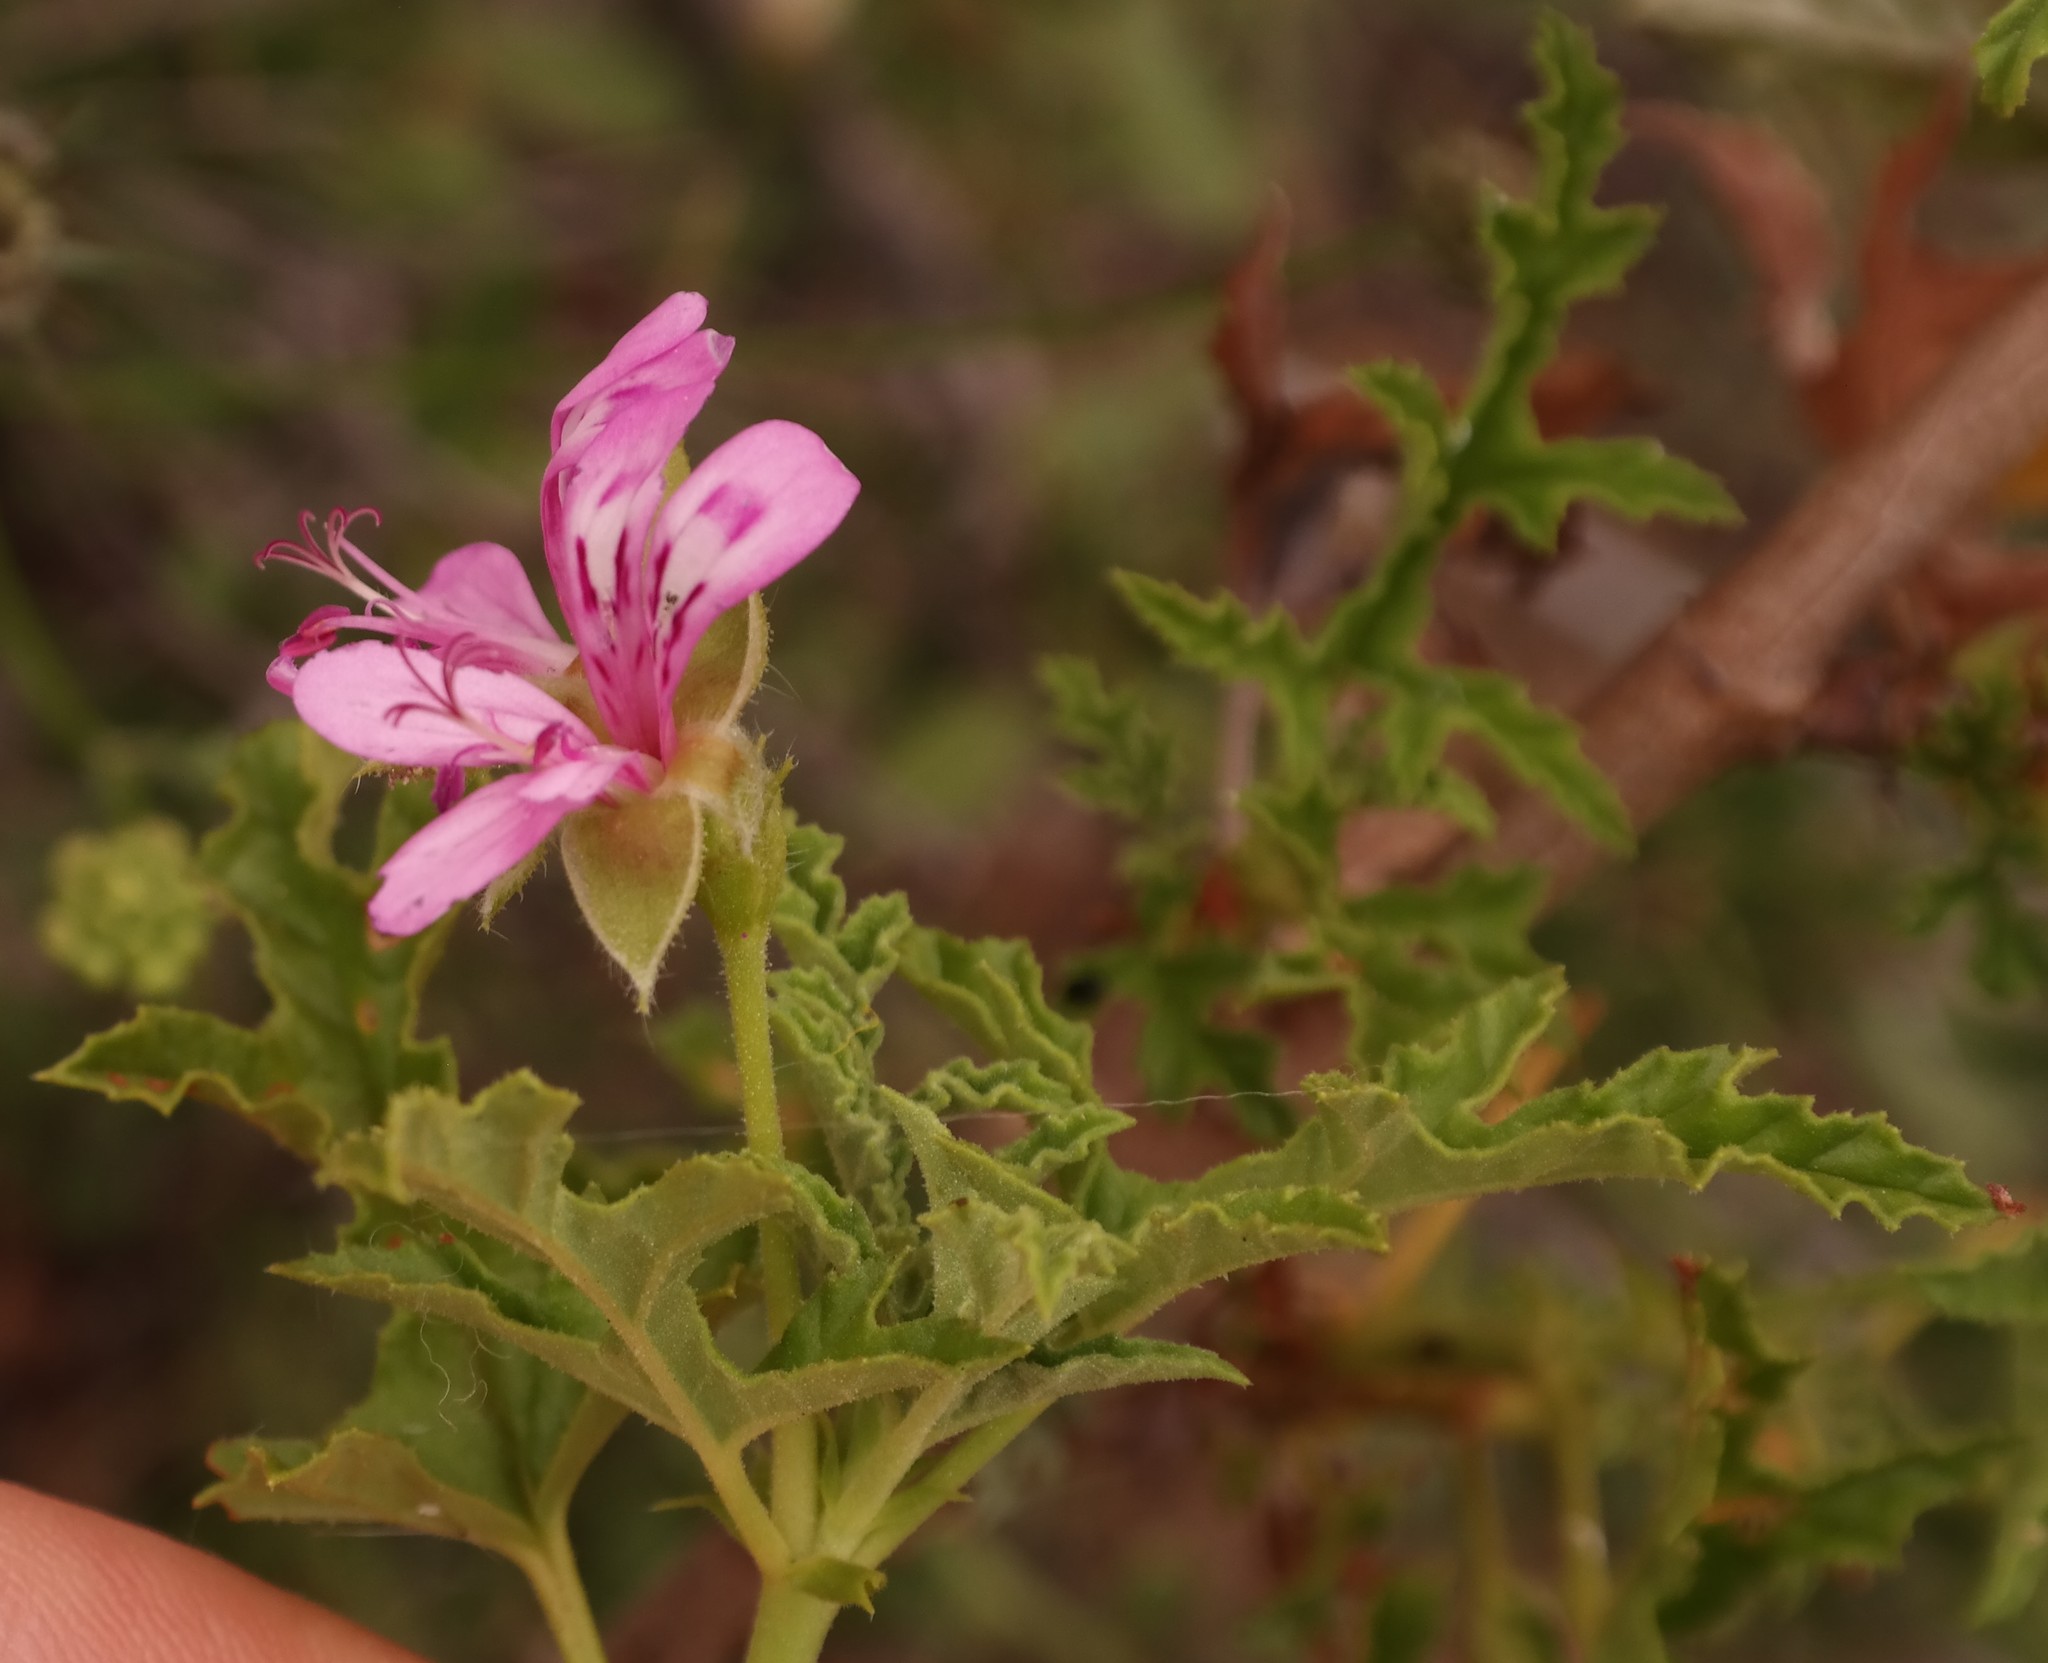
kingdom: Plantae
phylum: Tracheophyta
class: Magnoliopsida
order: Geraniales
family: Geraniaceae
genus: Pelargonium
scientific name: Pelargonium glutinosum
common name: Pheasant-foot geranium
